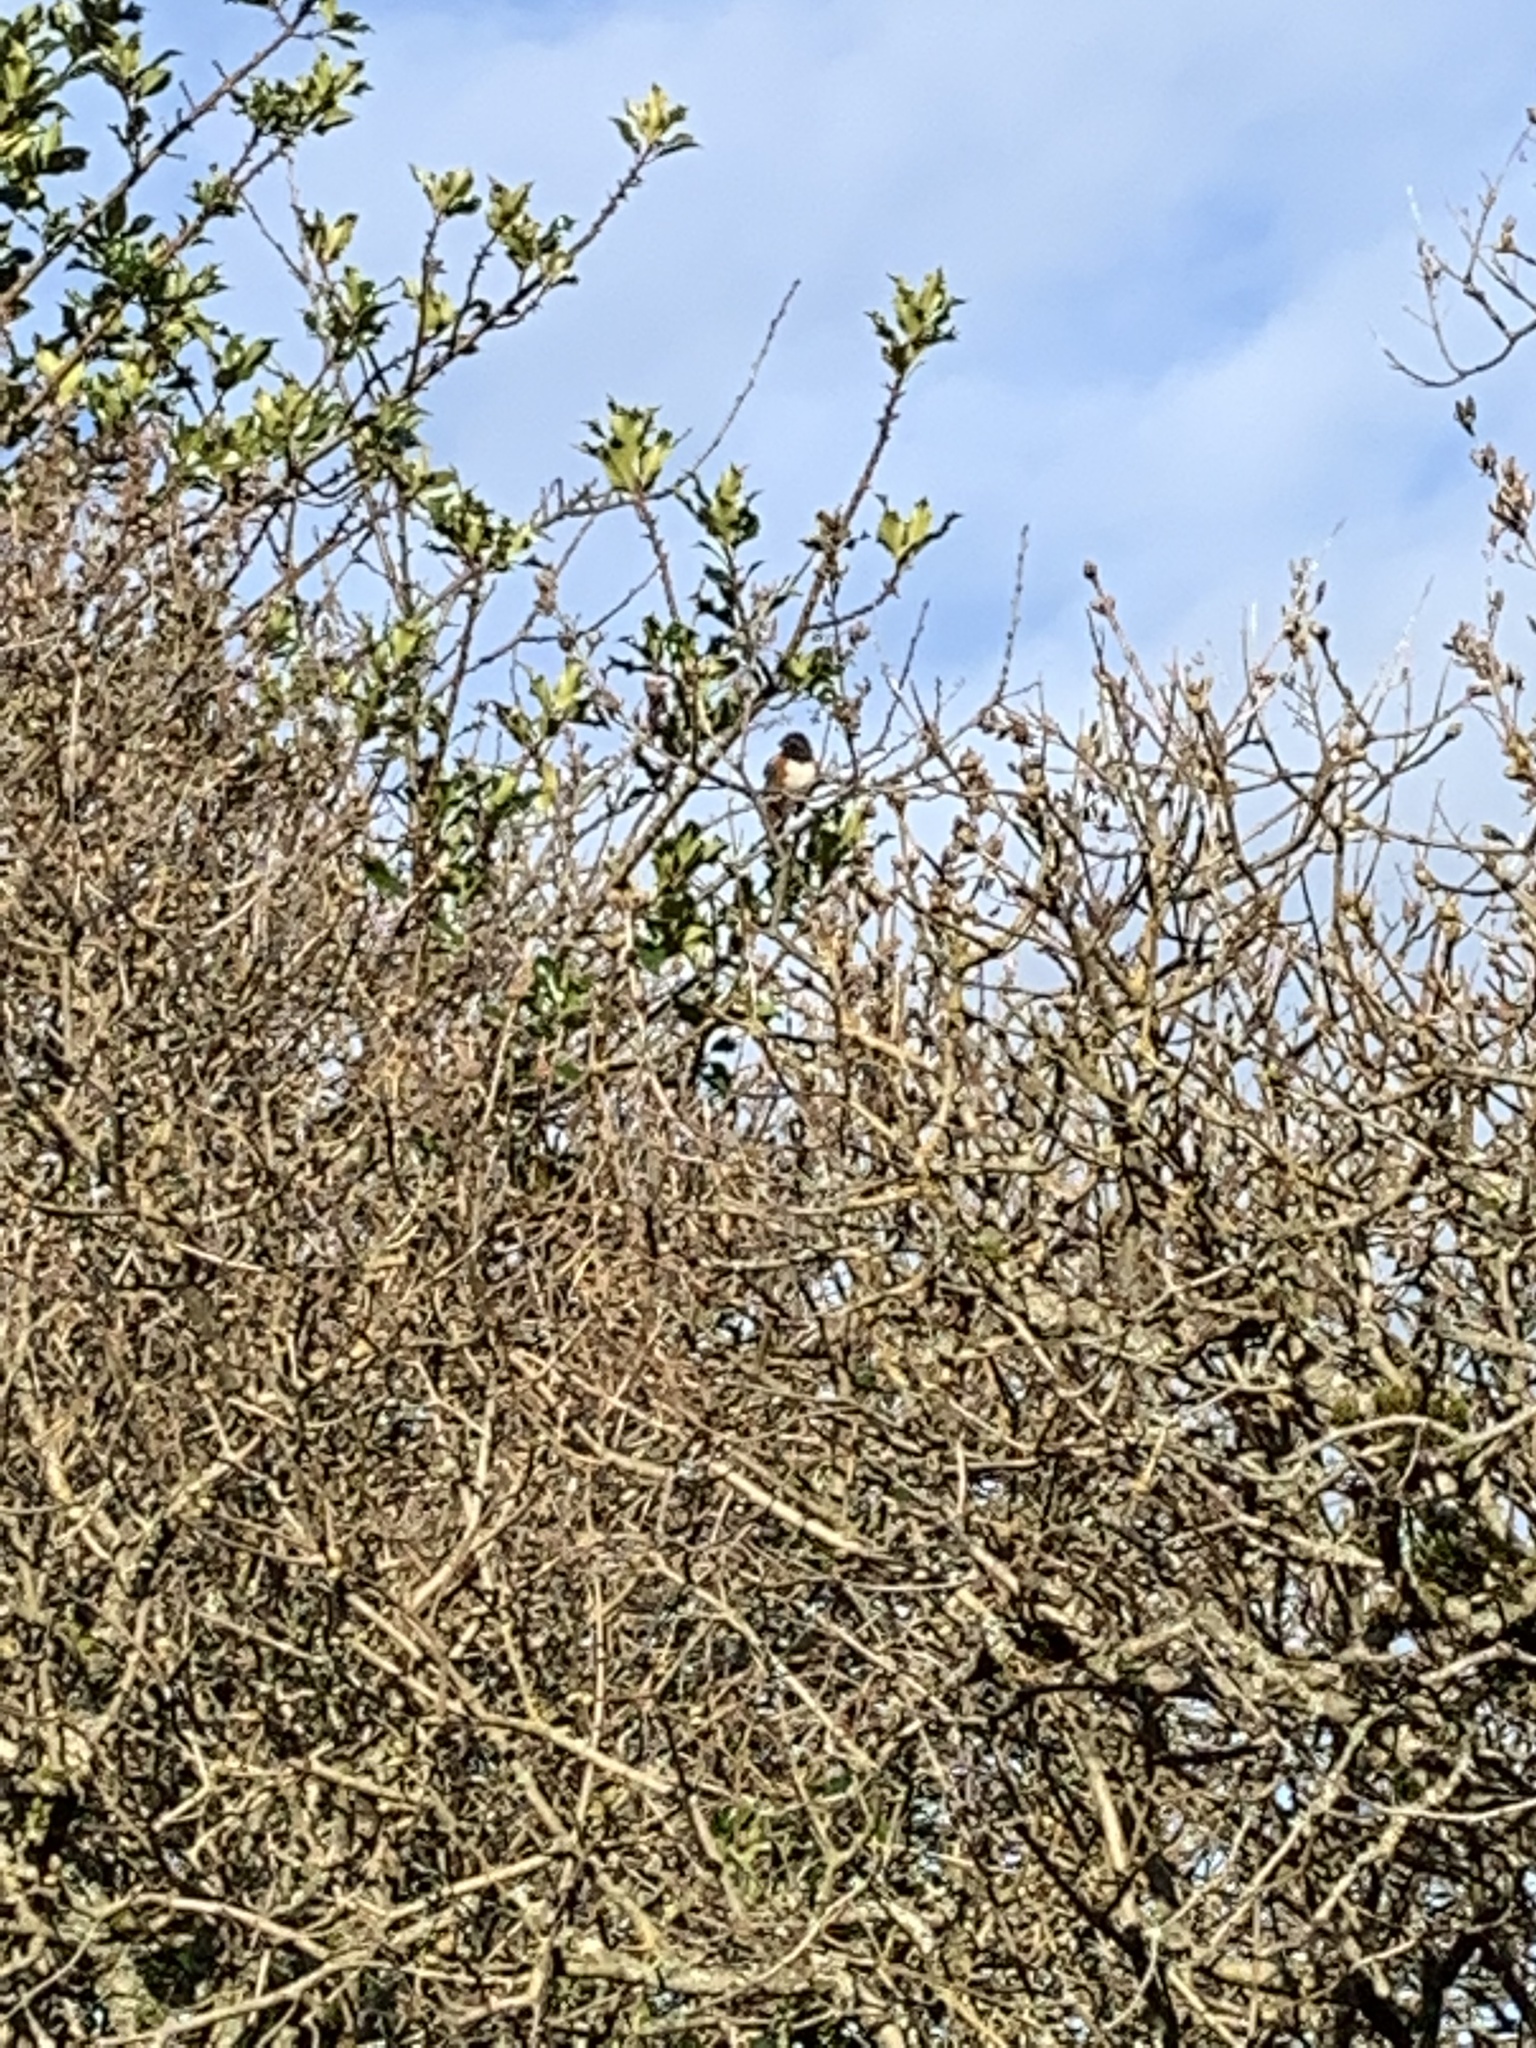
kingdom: Animalia
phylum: Chordata
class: Aves
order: Passeriformes
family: Passerellidae
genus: Pipilo
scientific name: Pipilo maculatus
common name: Spotted towhee
